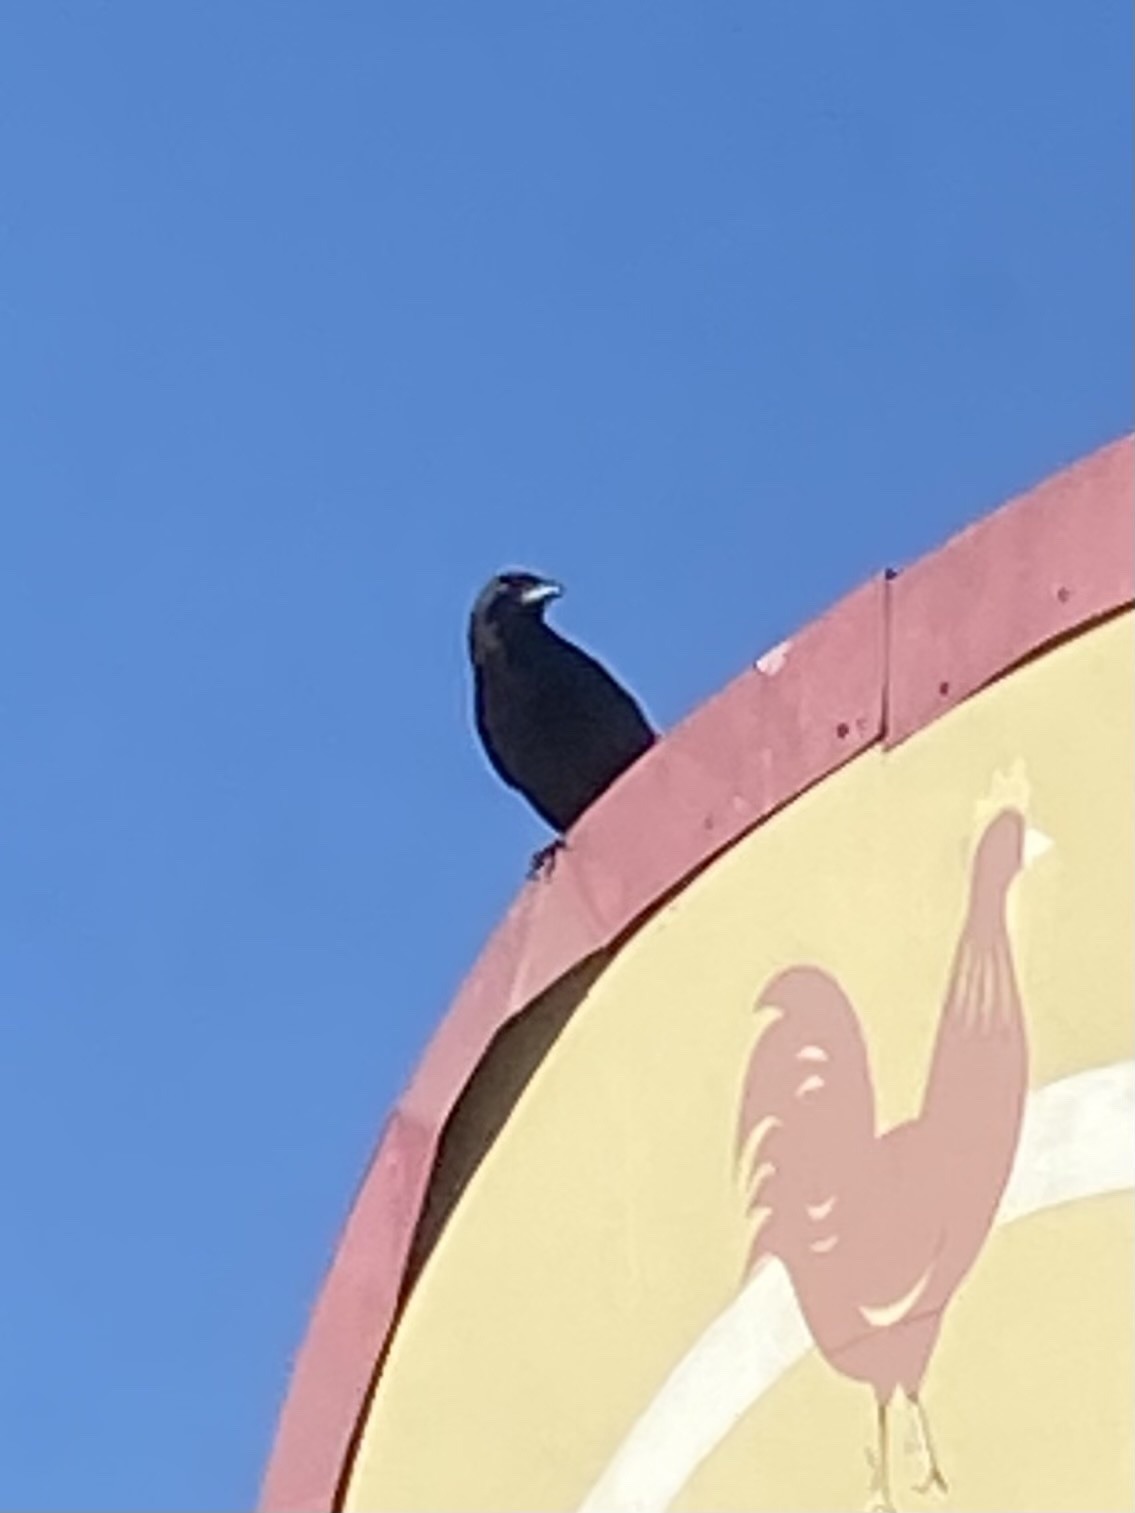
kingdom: Animalia
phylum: Chordata
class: Aves
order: Passeriformes
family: Corvidae
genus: Corvus
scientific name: Corvus brachyrhynchos
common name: American crow
